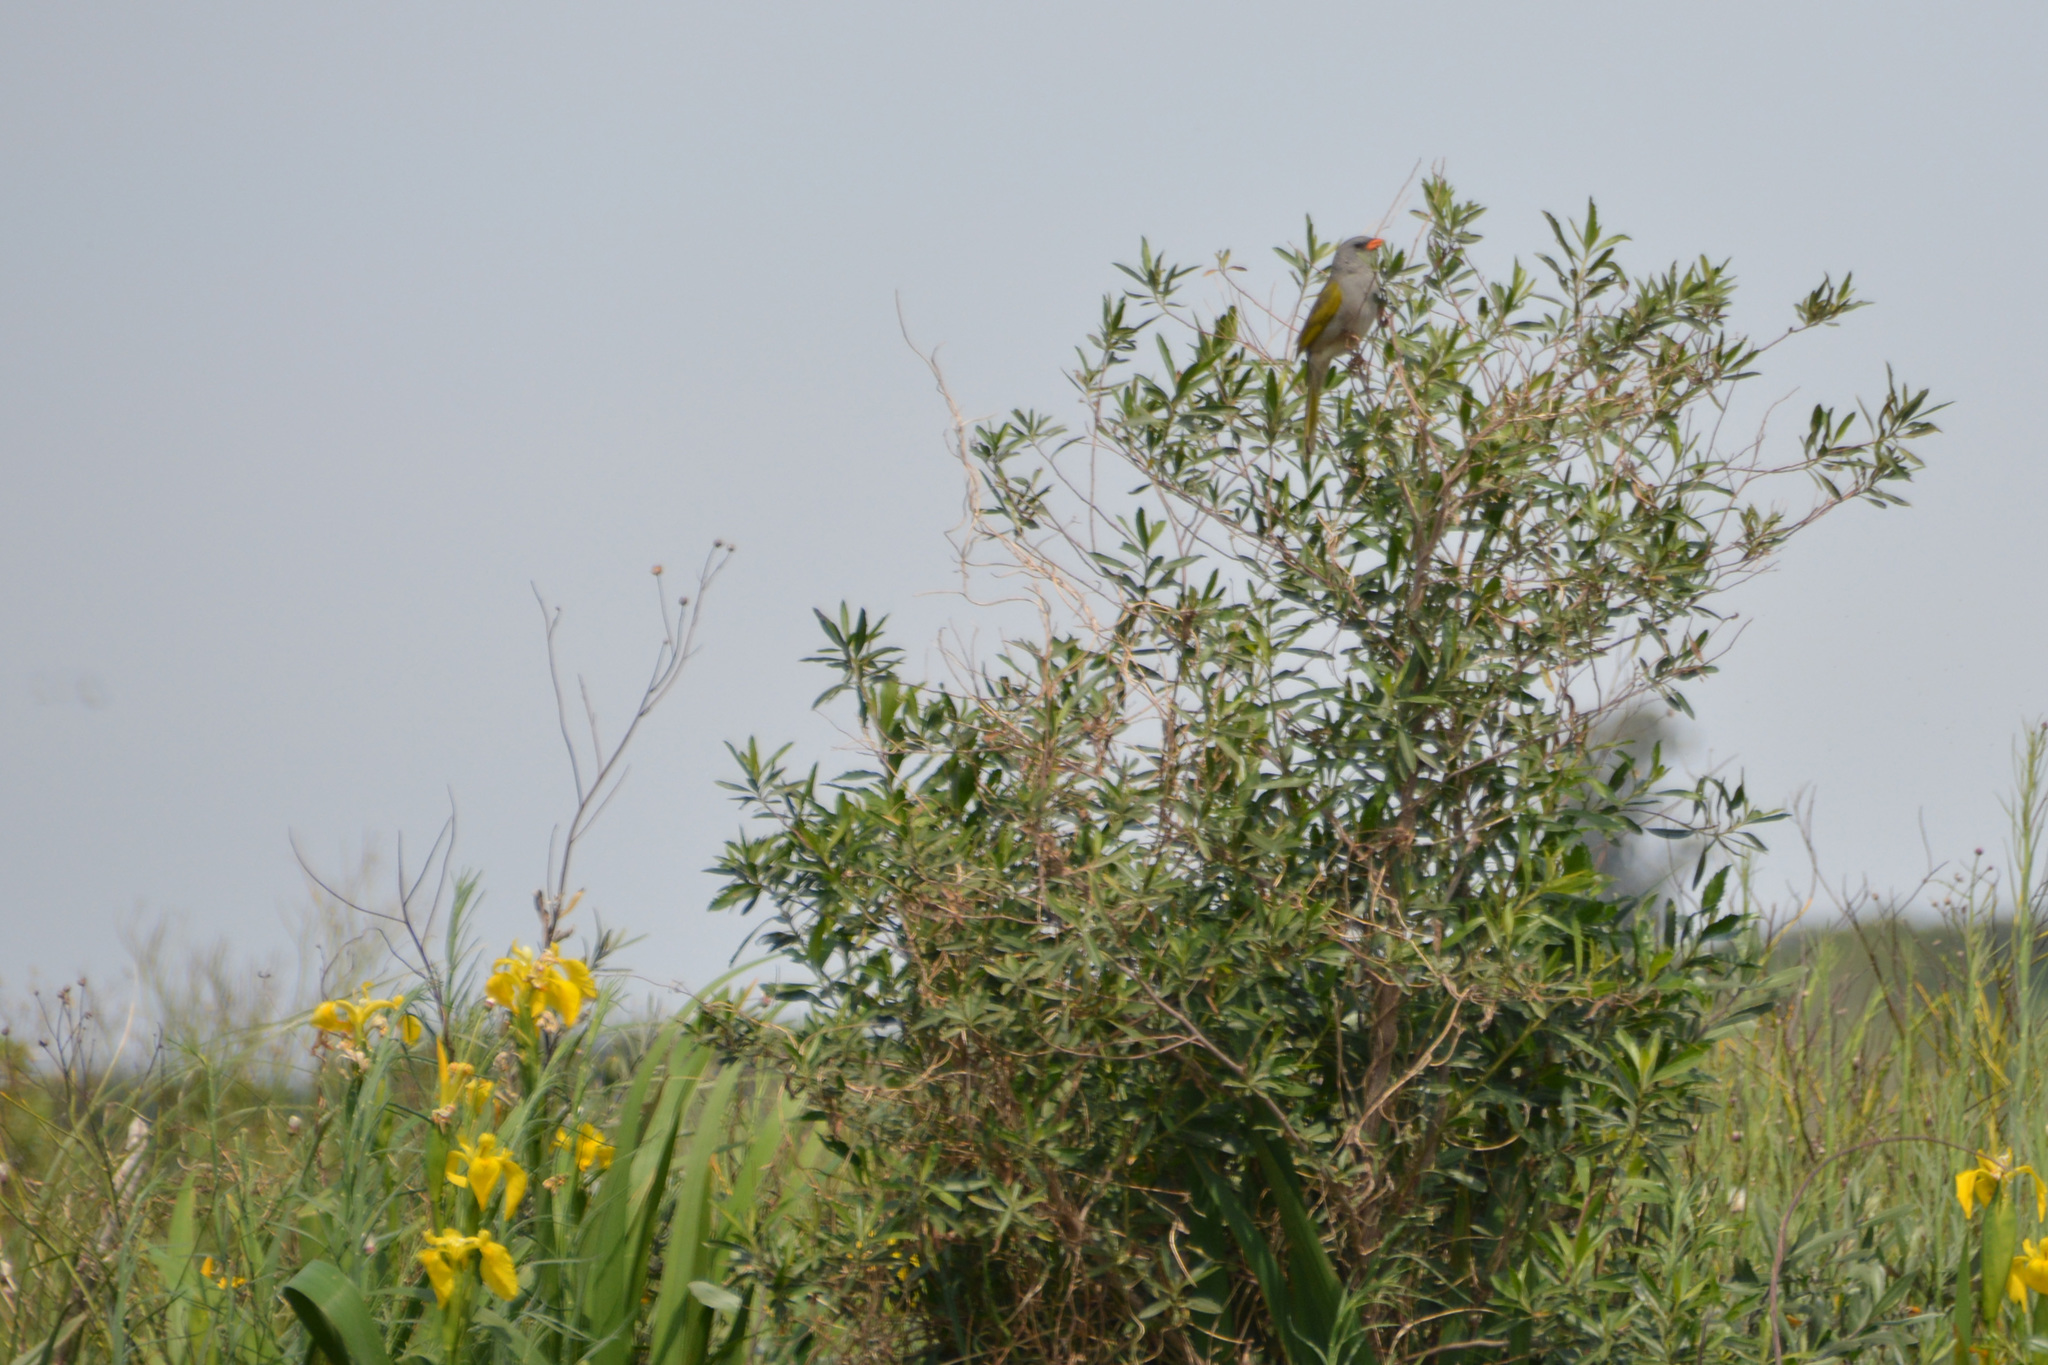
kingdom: Animalia
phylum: Chordata
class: Aves
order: Passeriformes
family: Thraupidae
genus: Embernagra
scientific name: Embernagra platensis
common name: Pampa finch
